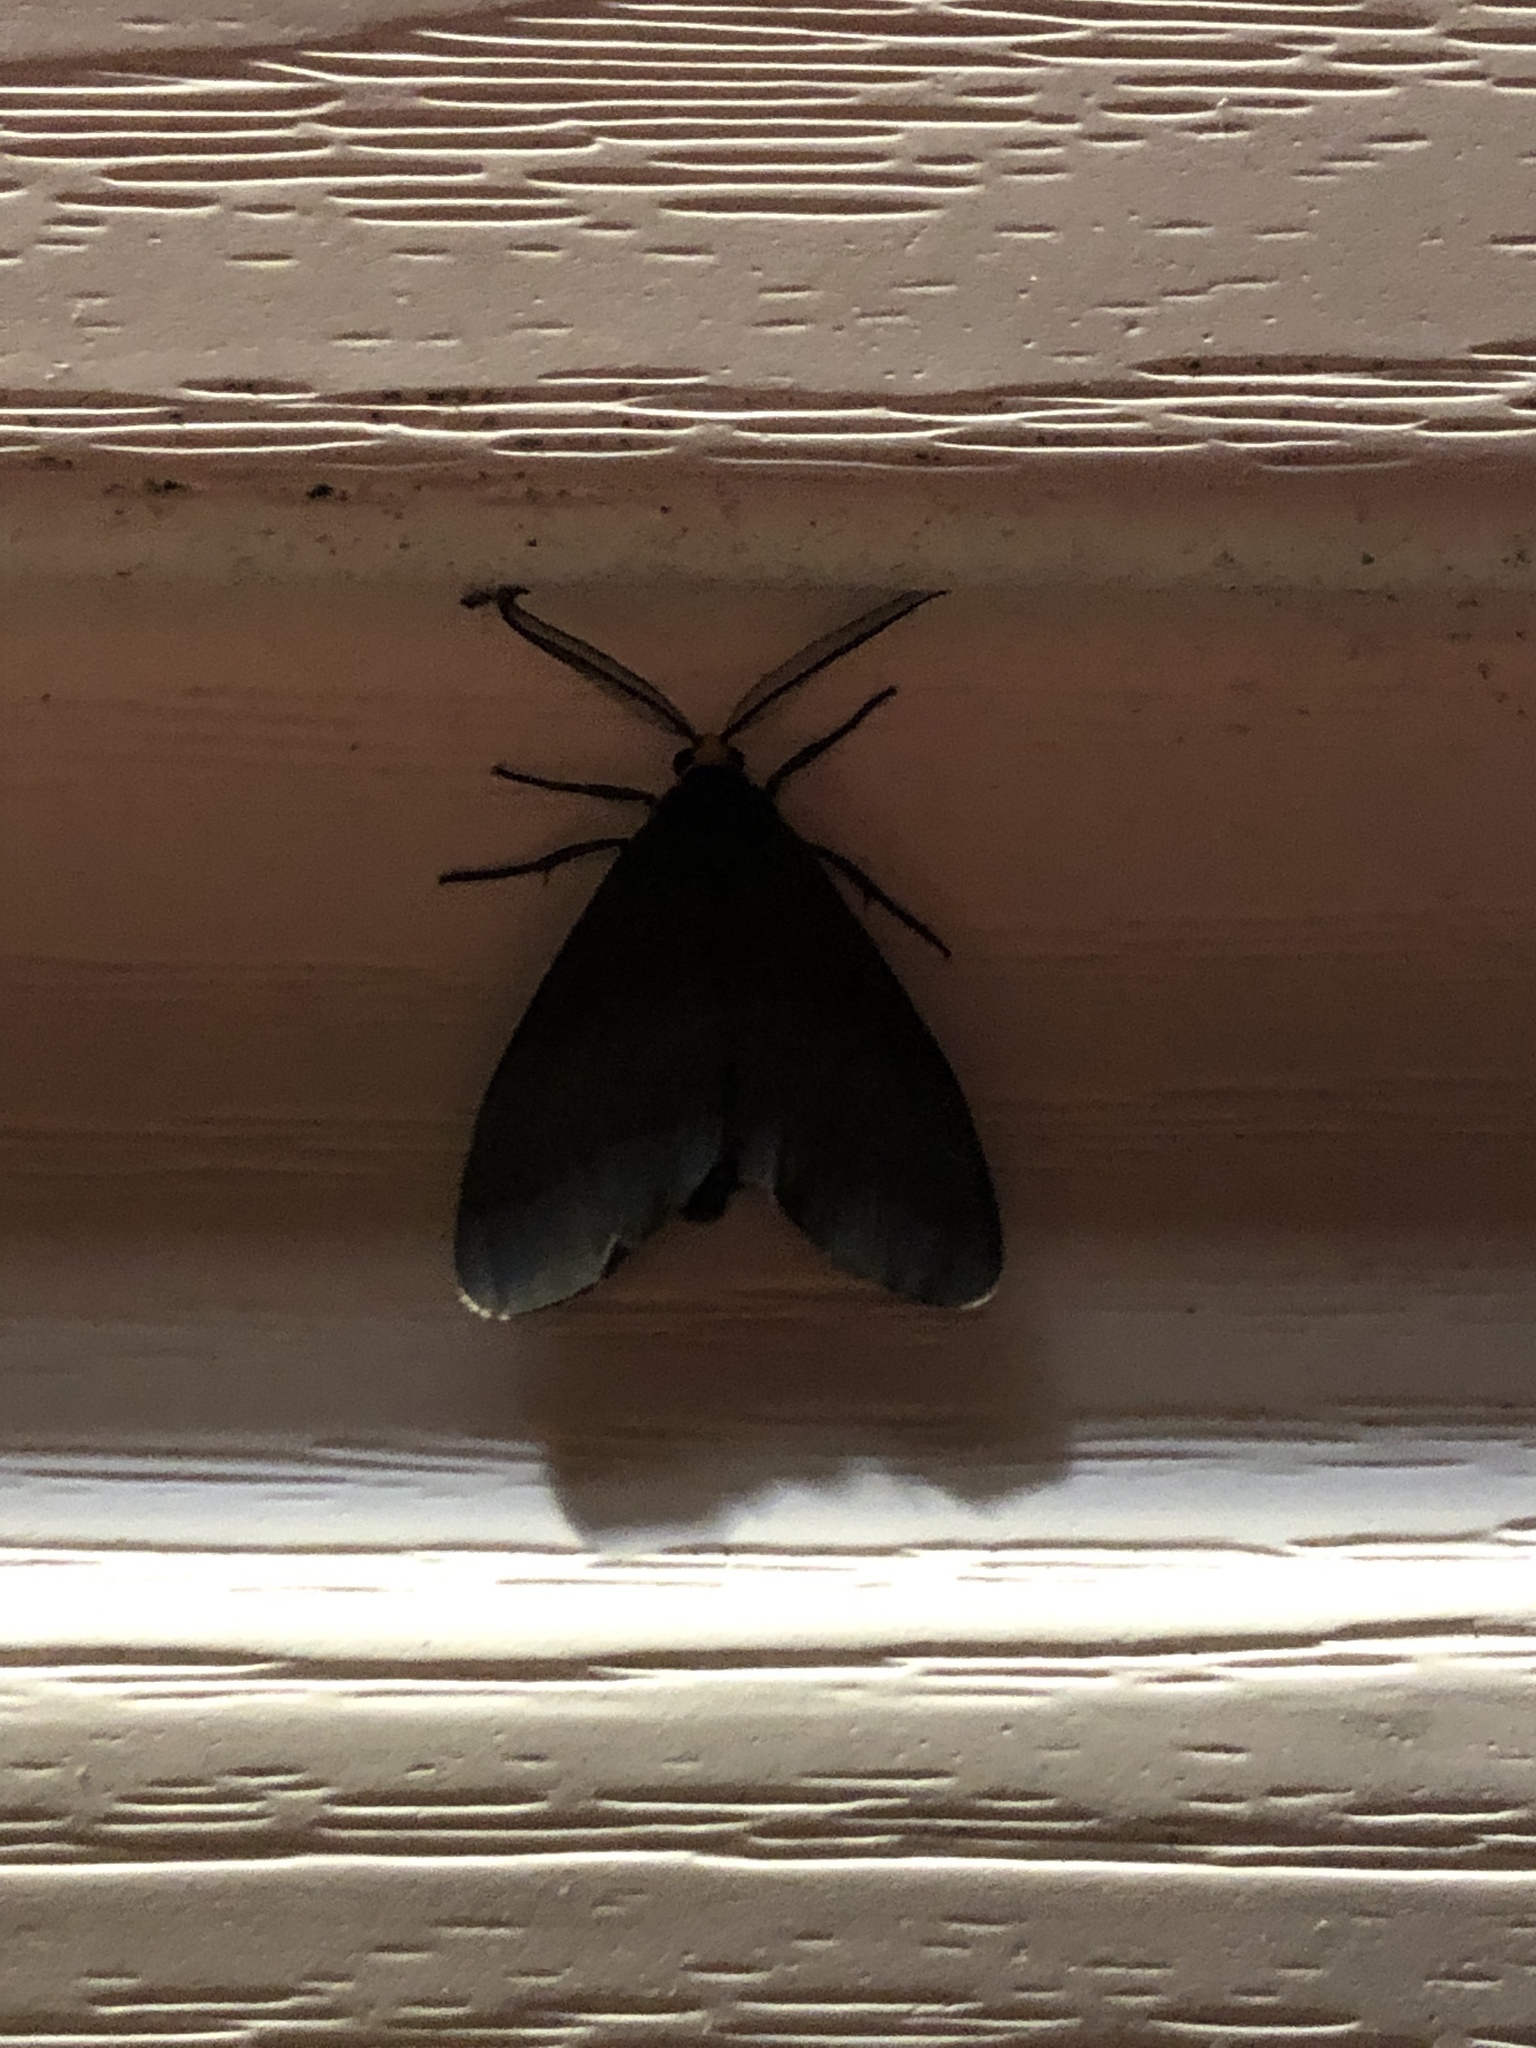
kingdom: Animalia
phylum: Arthropoda
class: Insecta
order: Lepidoptera
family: Erebidae
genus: Ctenucha
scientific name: Ctenucha virginica
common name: Virginia ctenucha moth
